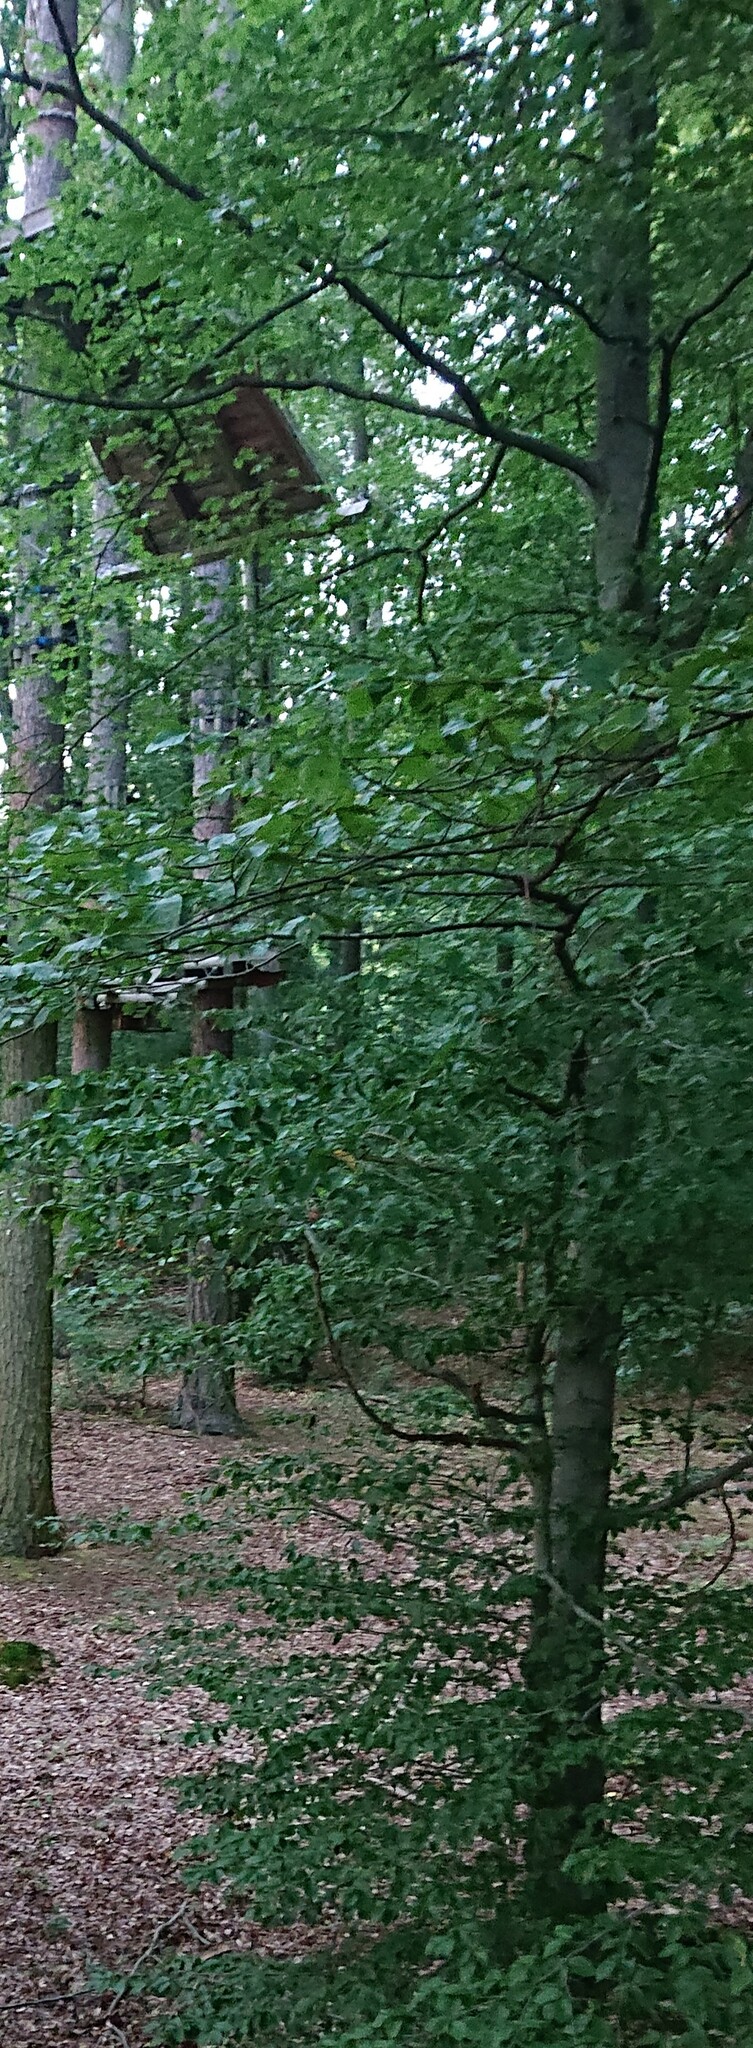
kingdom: Plantae
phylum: Tracheophyta
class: Magnoliopsida
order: Fagales
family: Fagaceae
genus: Fagus
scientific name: Fagus sylvatica
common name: Beech
